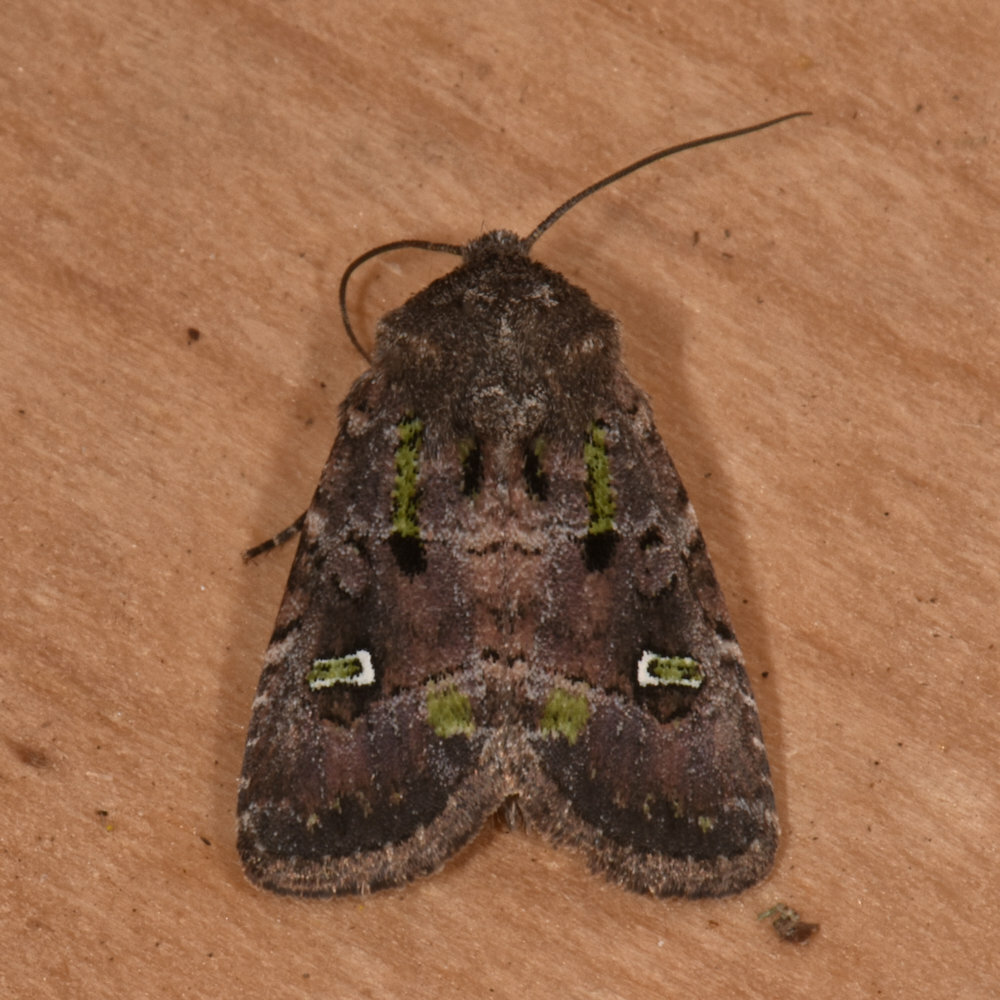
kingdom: Animalia
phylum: Arthropoda
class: Insecta
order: Lepidoptera
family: Noctuidae
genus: Lacinipolia
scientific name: Lacinipolia renigera
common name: Kidney-spotted minor
